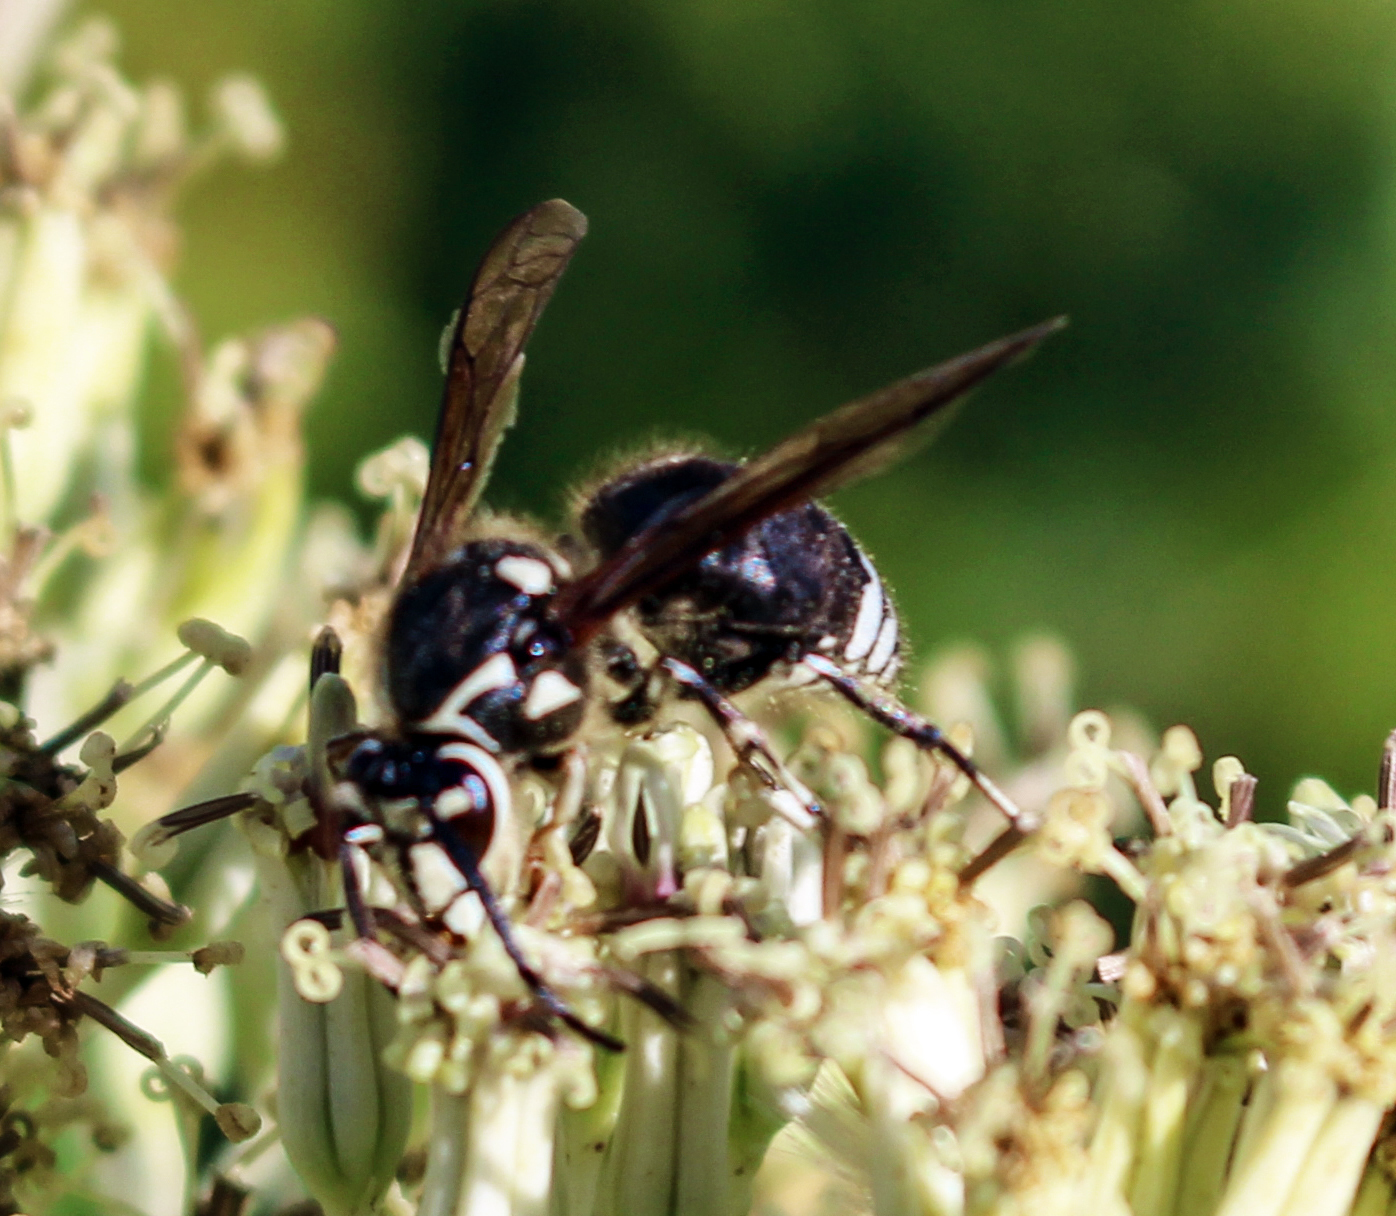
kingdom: Animalia
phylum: Arthropoda
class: Insecta
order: Hymenoptera
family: Vespidae
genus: Dolichovespula
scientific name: Dolichovespula maculata
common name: Bald-faced hornet
